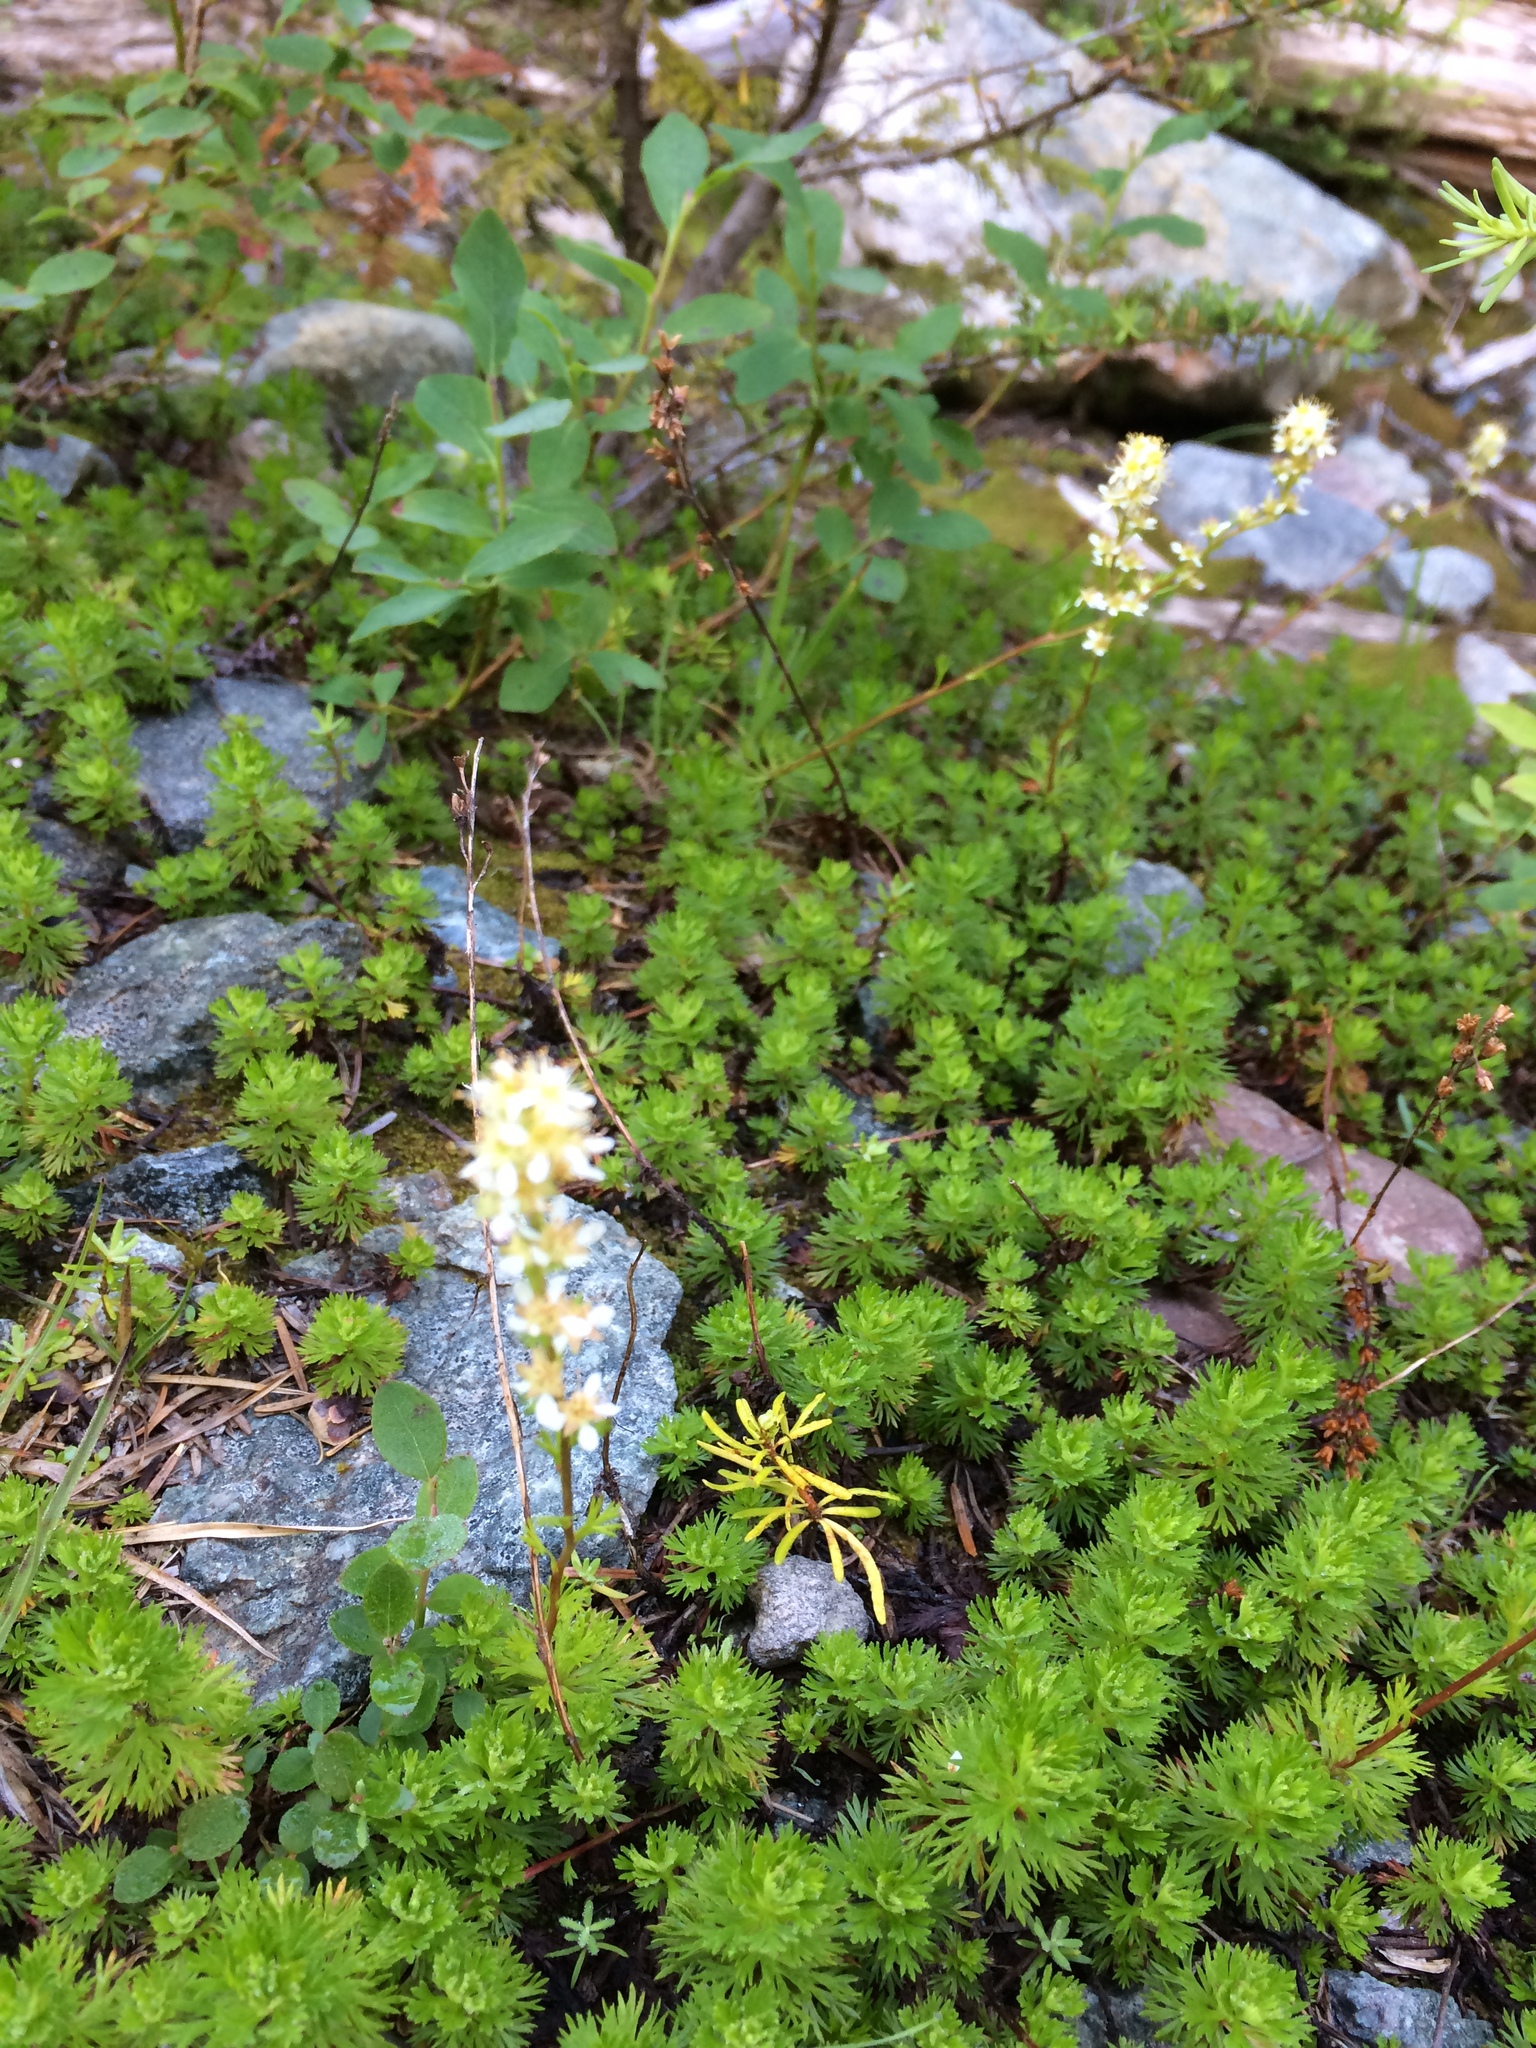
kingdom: Plantae
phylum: Tracheophyta
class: Magnoliopsida
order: Rosales
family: Rosaceae
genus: Luetkea
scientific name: Luetkea pectinata
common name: Partridgefoot
